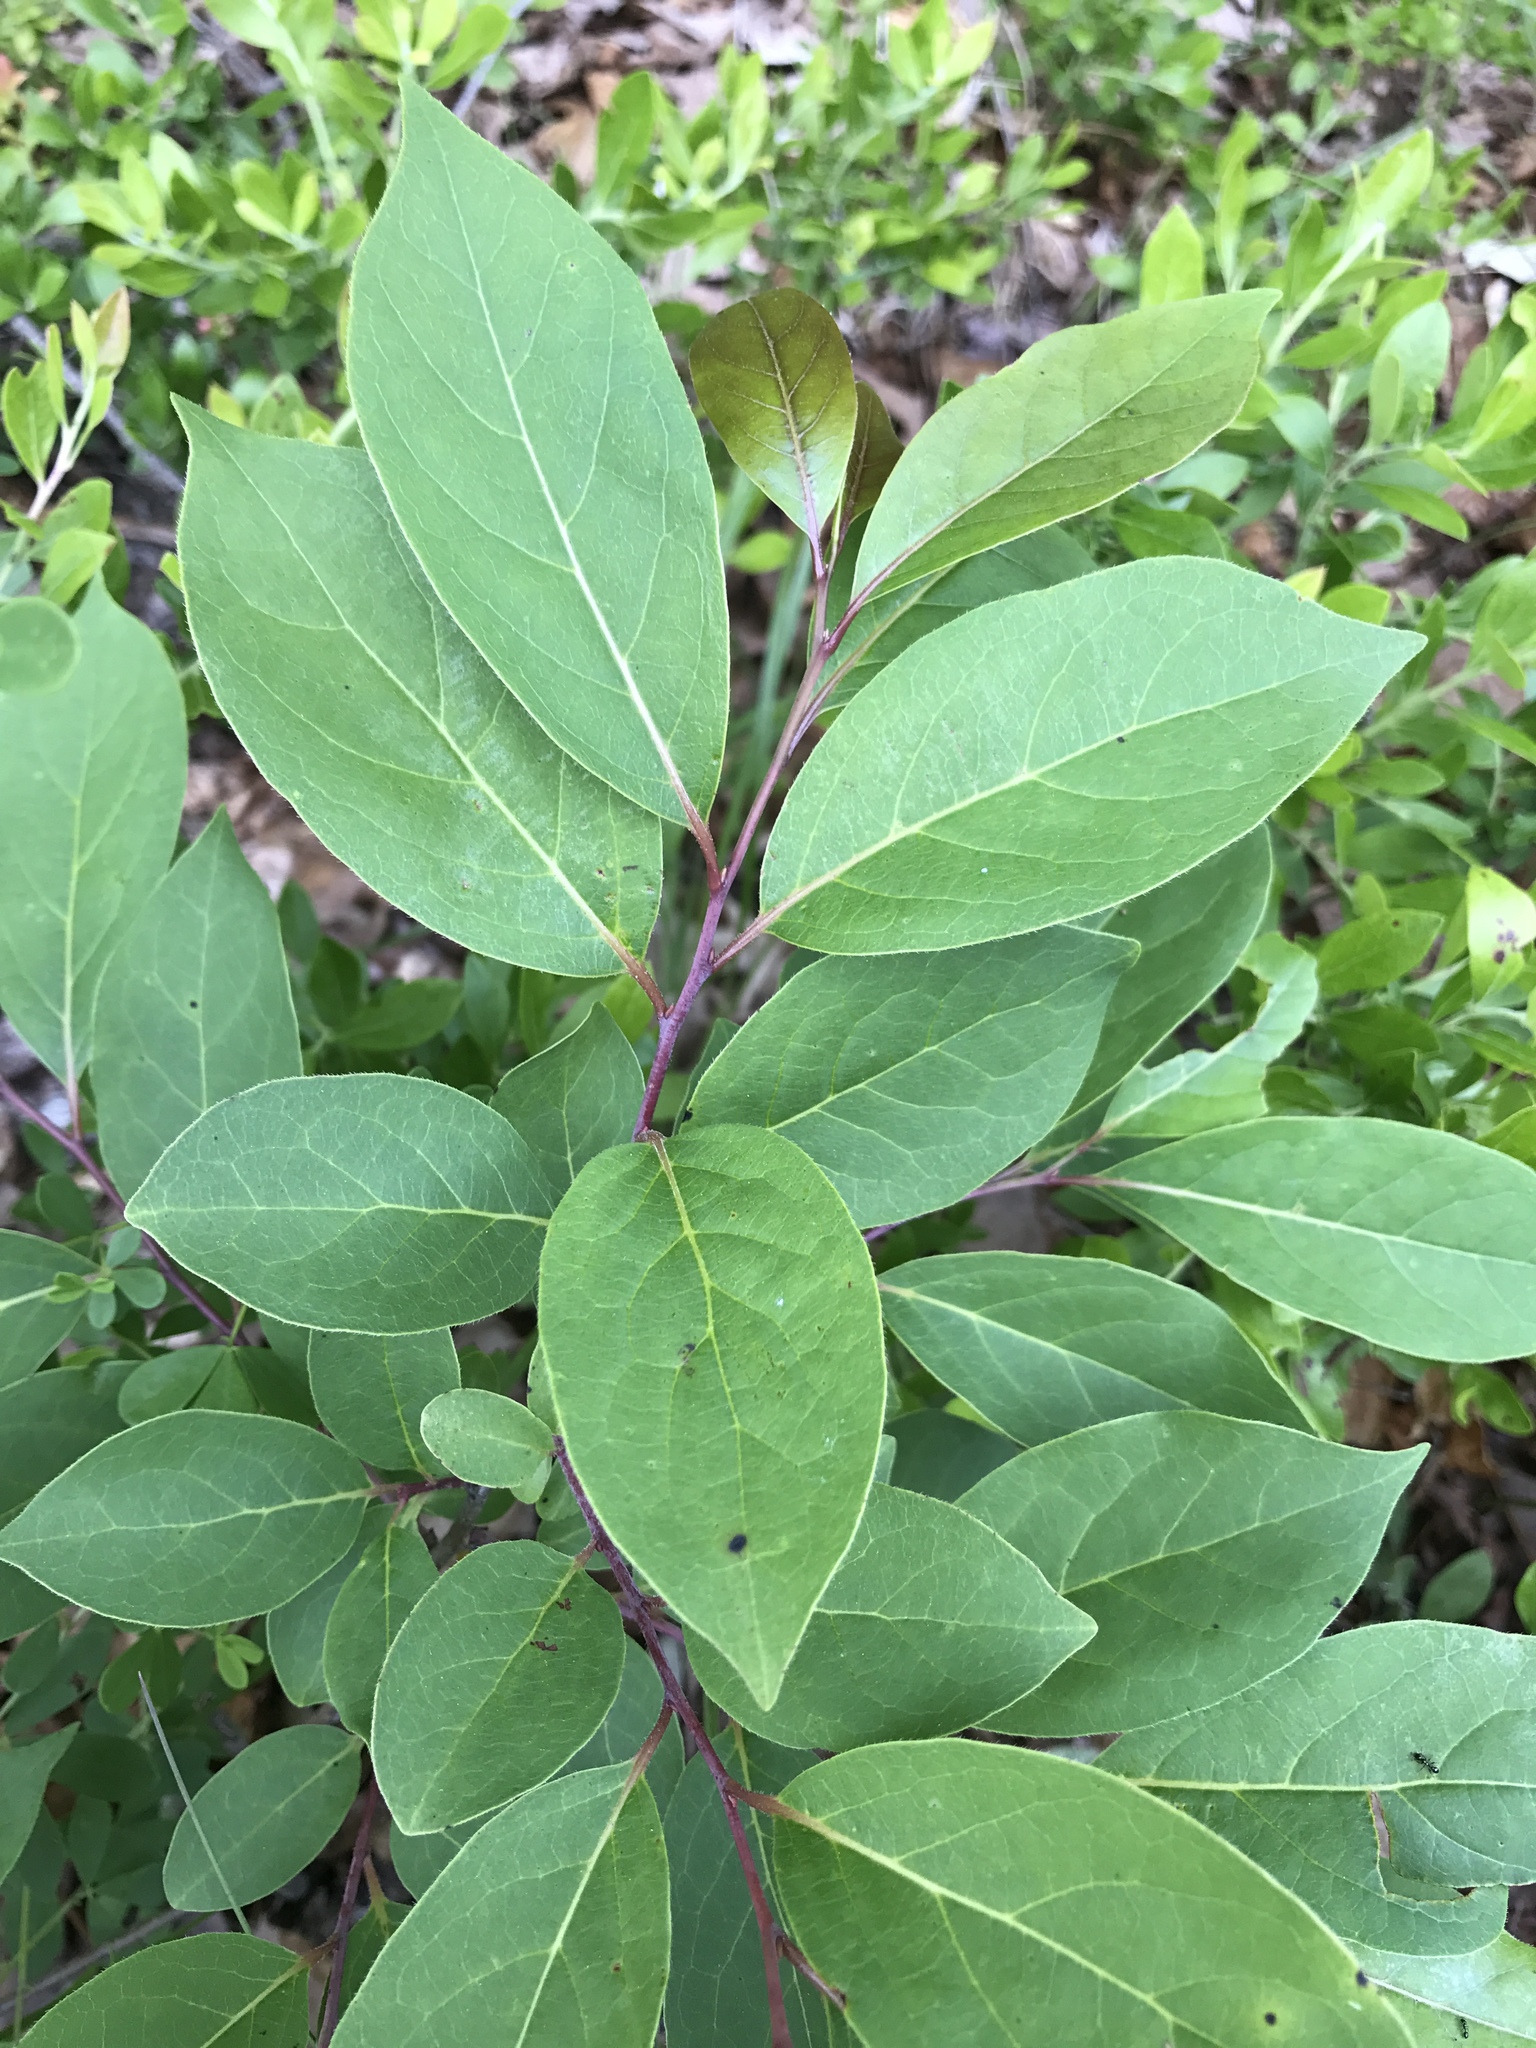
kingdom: Plantae
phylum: Tracheophyta
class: Magnoliopsida
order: Ericales
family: Ebenaceae
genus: Diospyros
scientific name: Diospyros virginiana
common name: Persimmon
